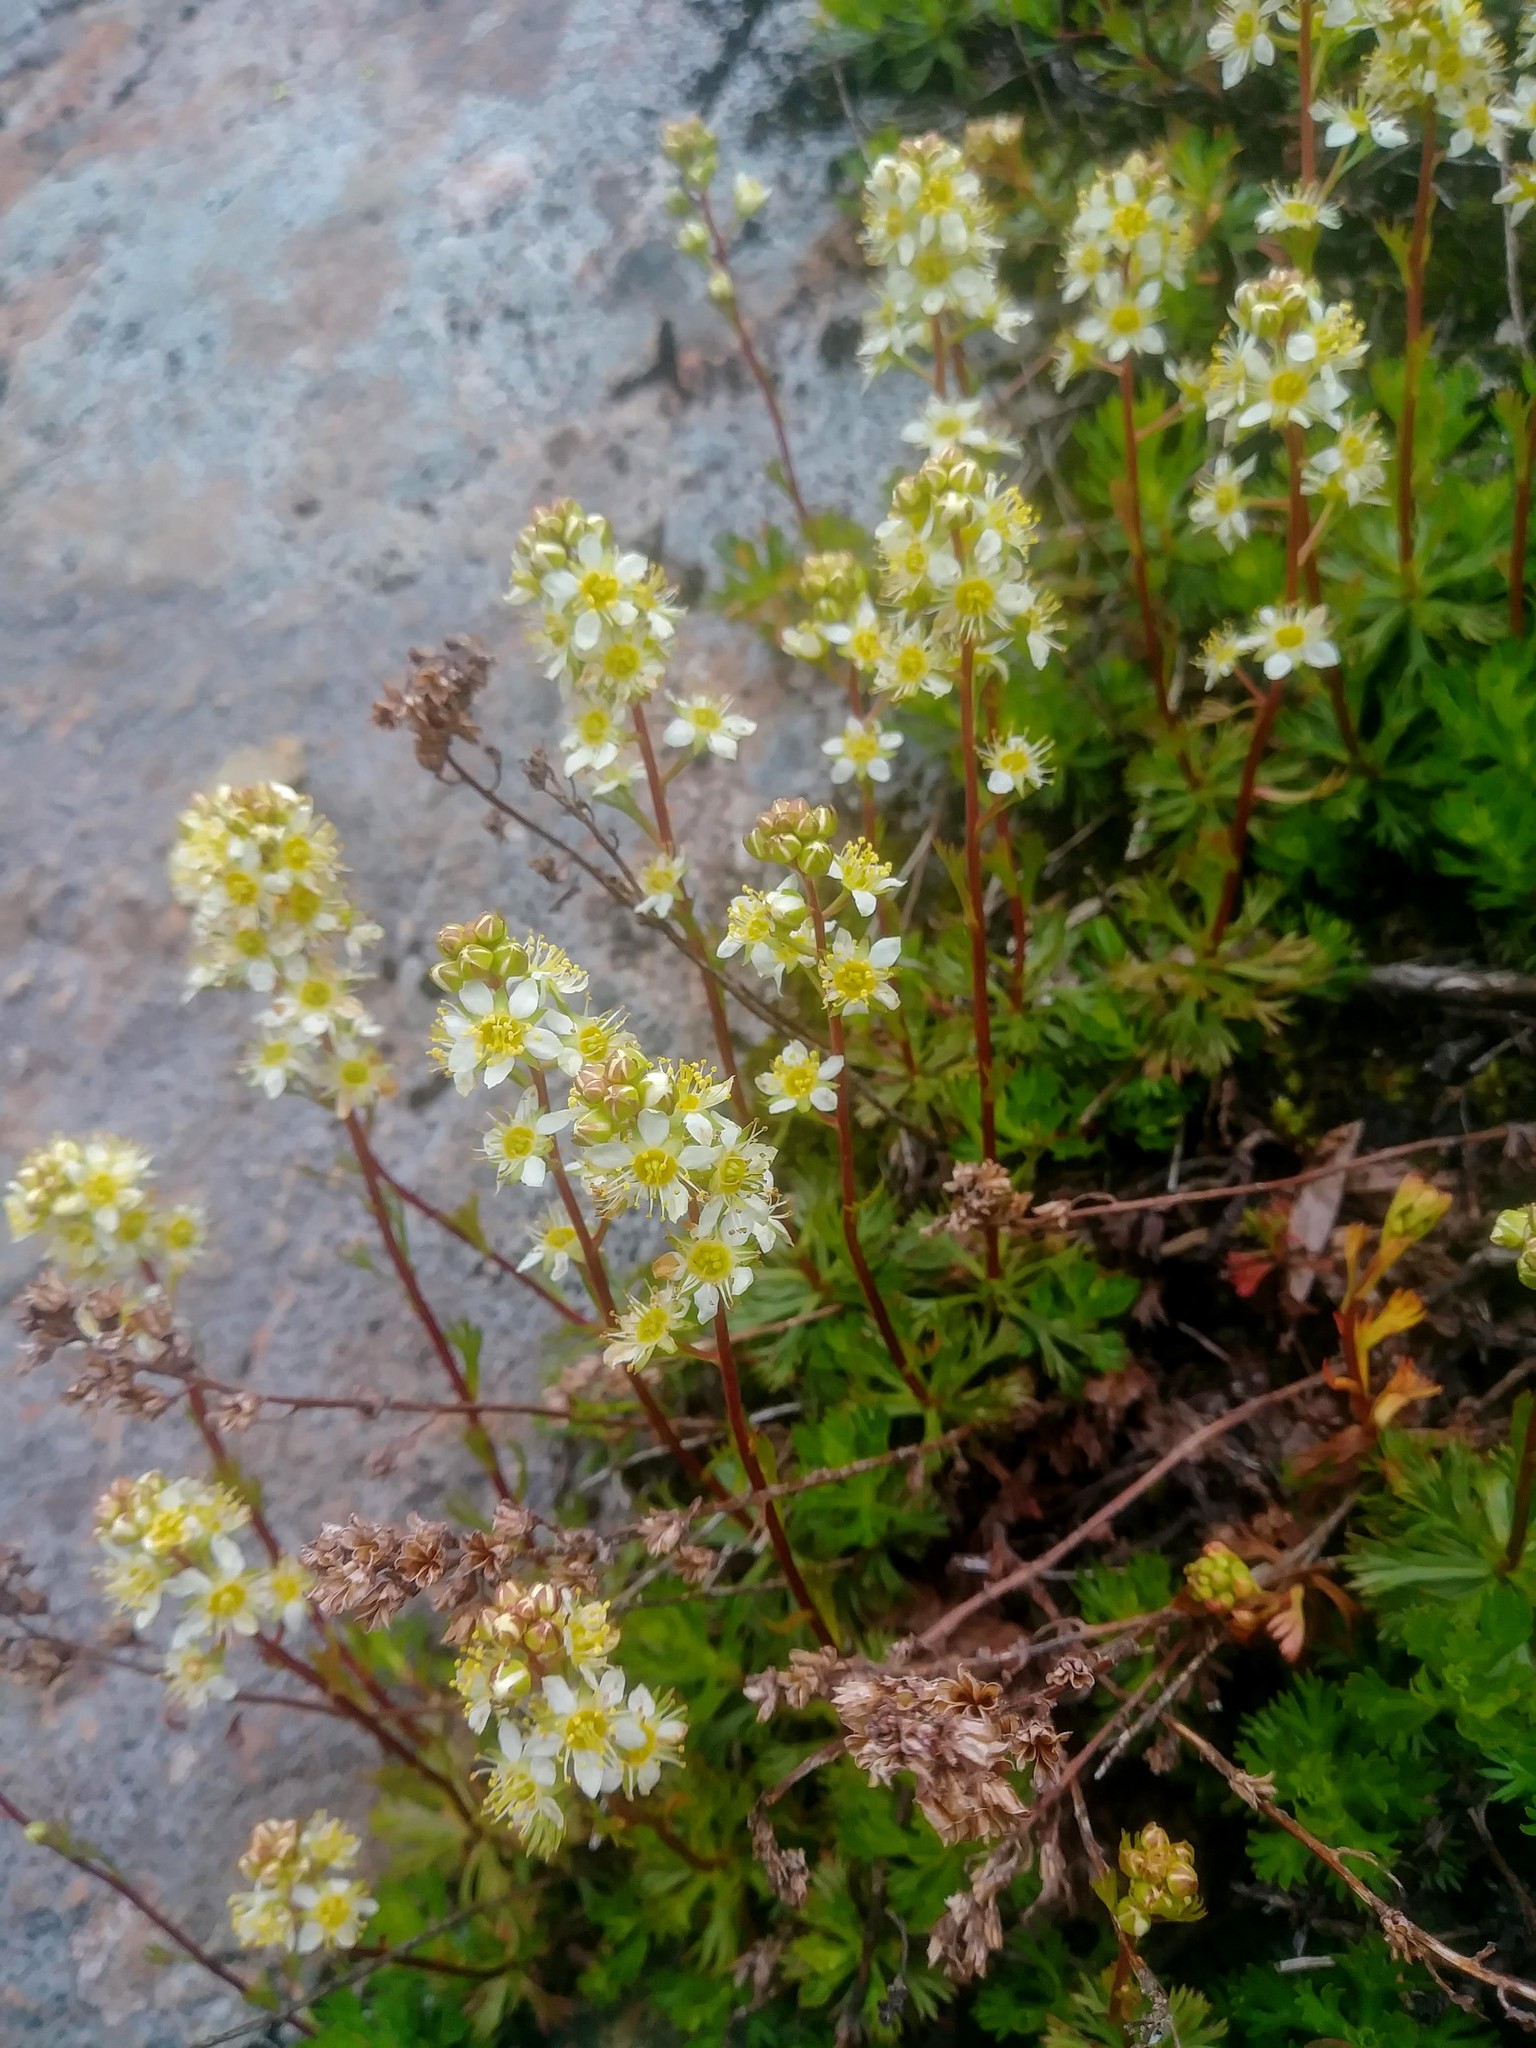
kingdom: Plantae
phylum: Tracheophyta
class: Magnoliopsida
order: Rosales
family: Rosaceae
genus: Luetkea
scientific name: Luetkea pectinata
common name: Partridgefoot
